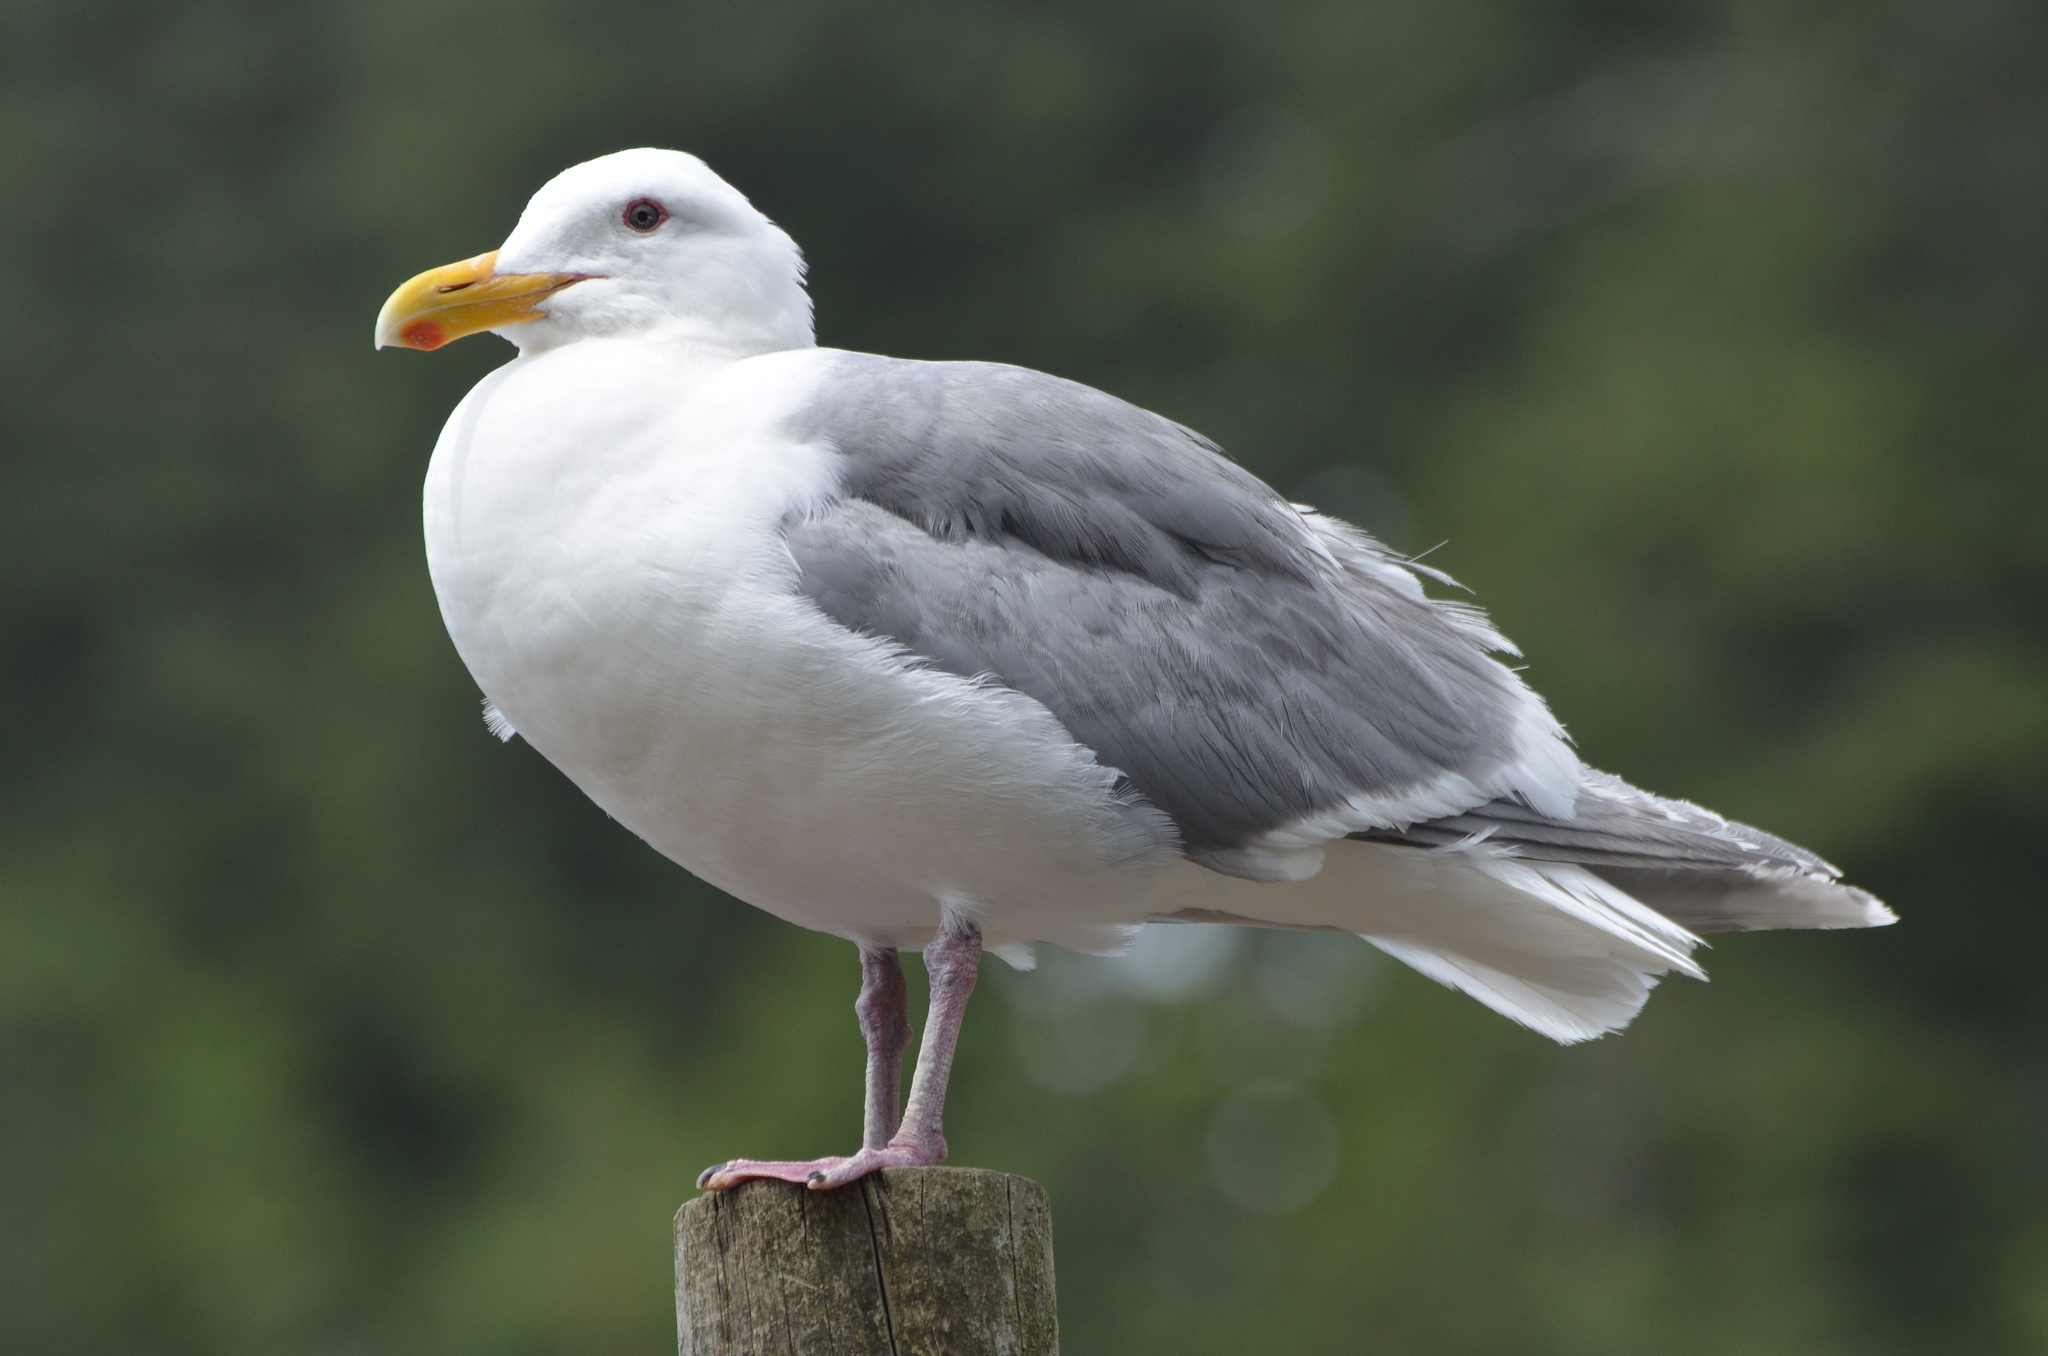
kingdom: Animalia
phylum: Chordata
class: Aves
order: Charadriiformes
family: Laridae
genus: Larus
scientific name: Larus glaucescens
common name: Glaucous-winged gull
